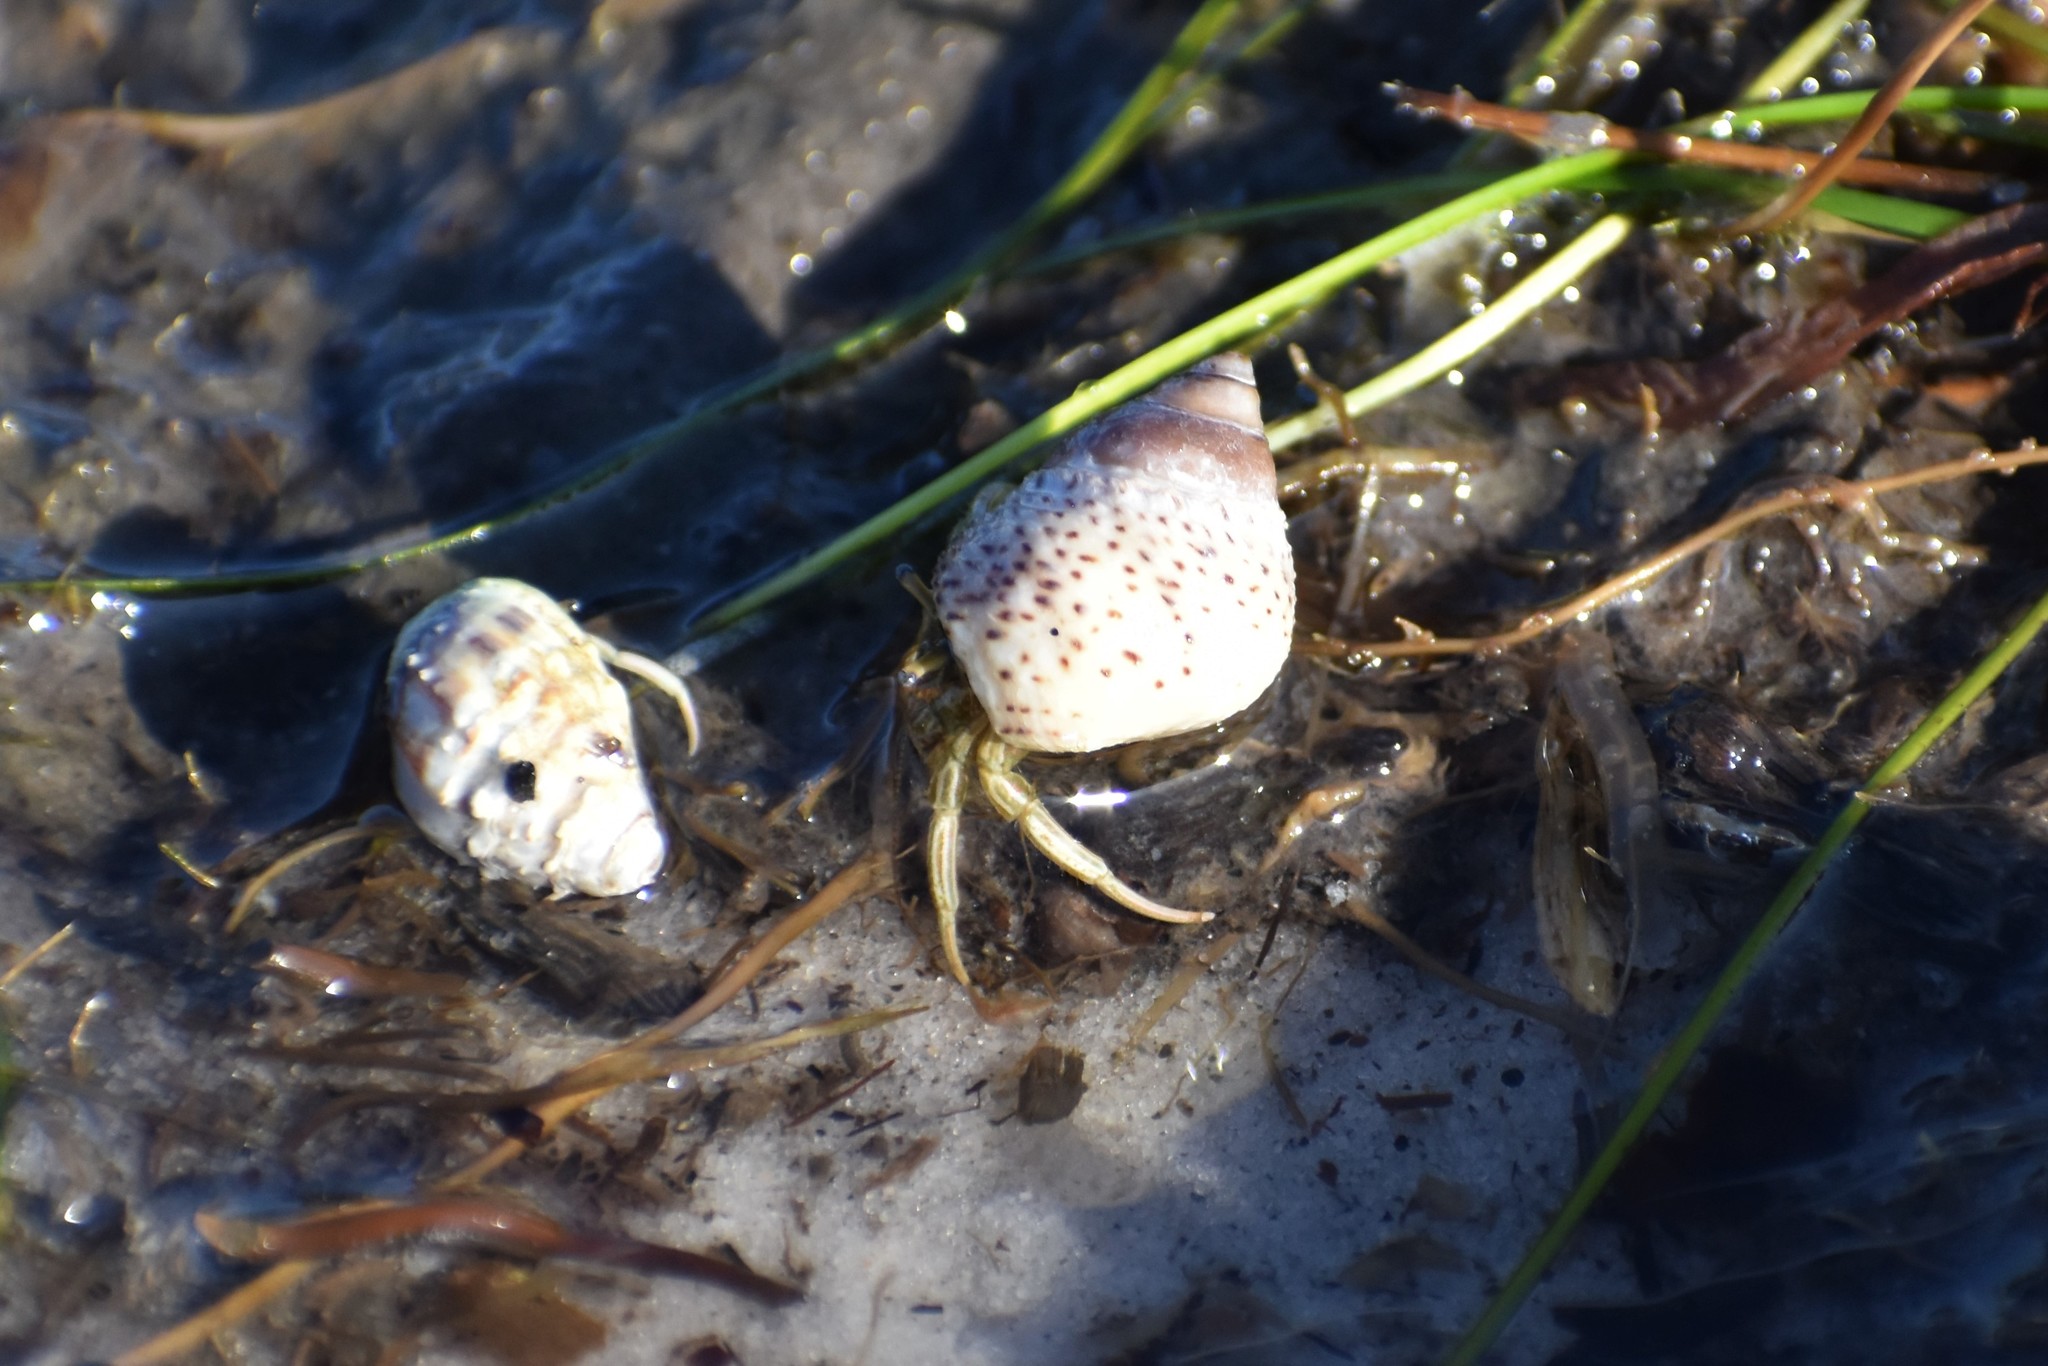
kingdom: Animalia
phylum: Arthropoda
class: Malacostraca
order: Decapoda
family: Diogenidae
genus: Clibanarius
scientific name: Clibanarius vittatus
